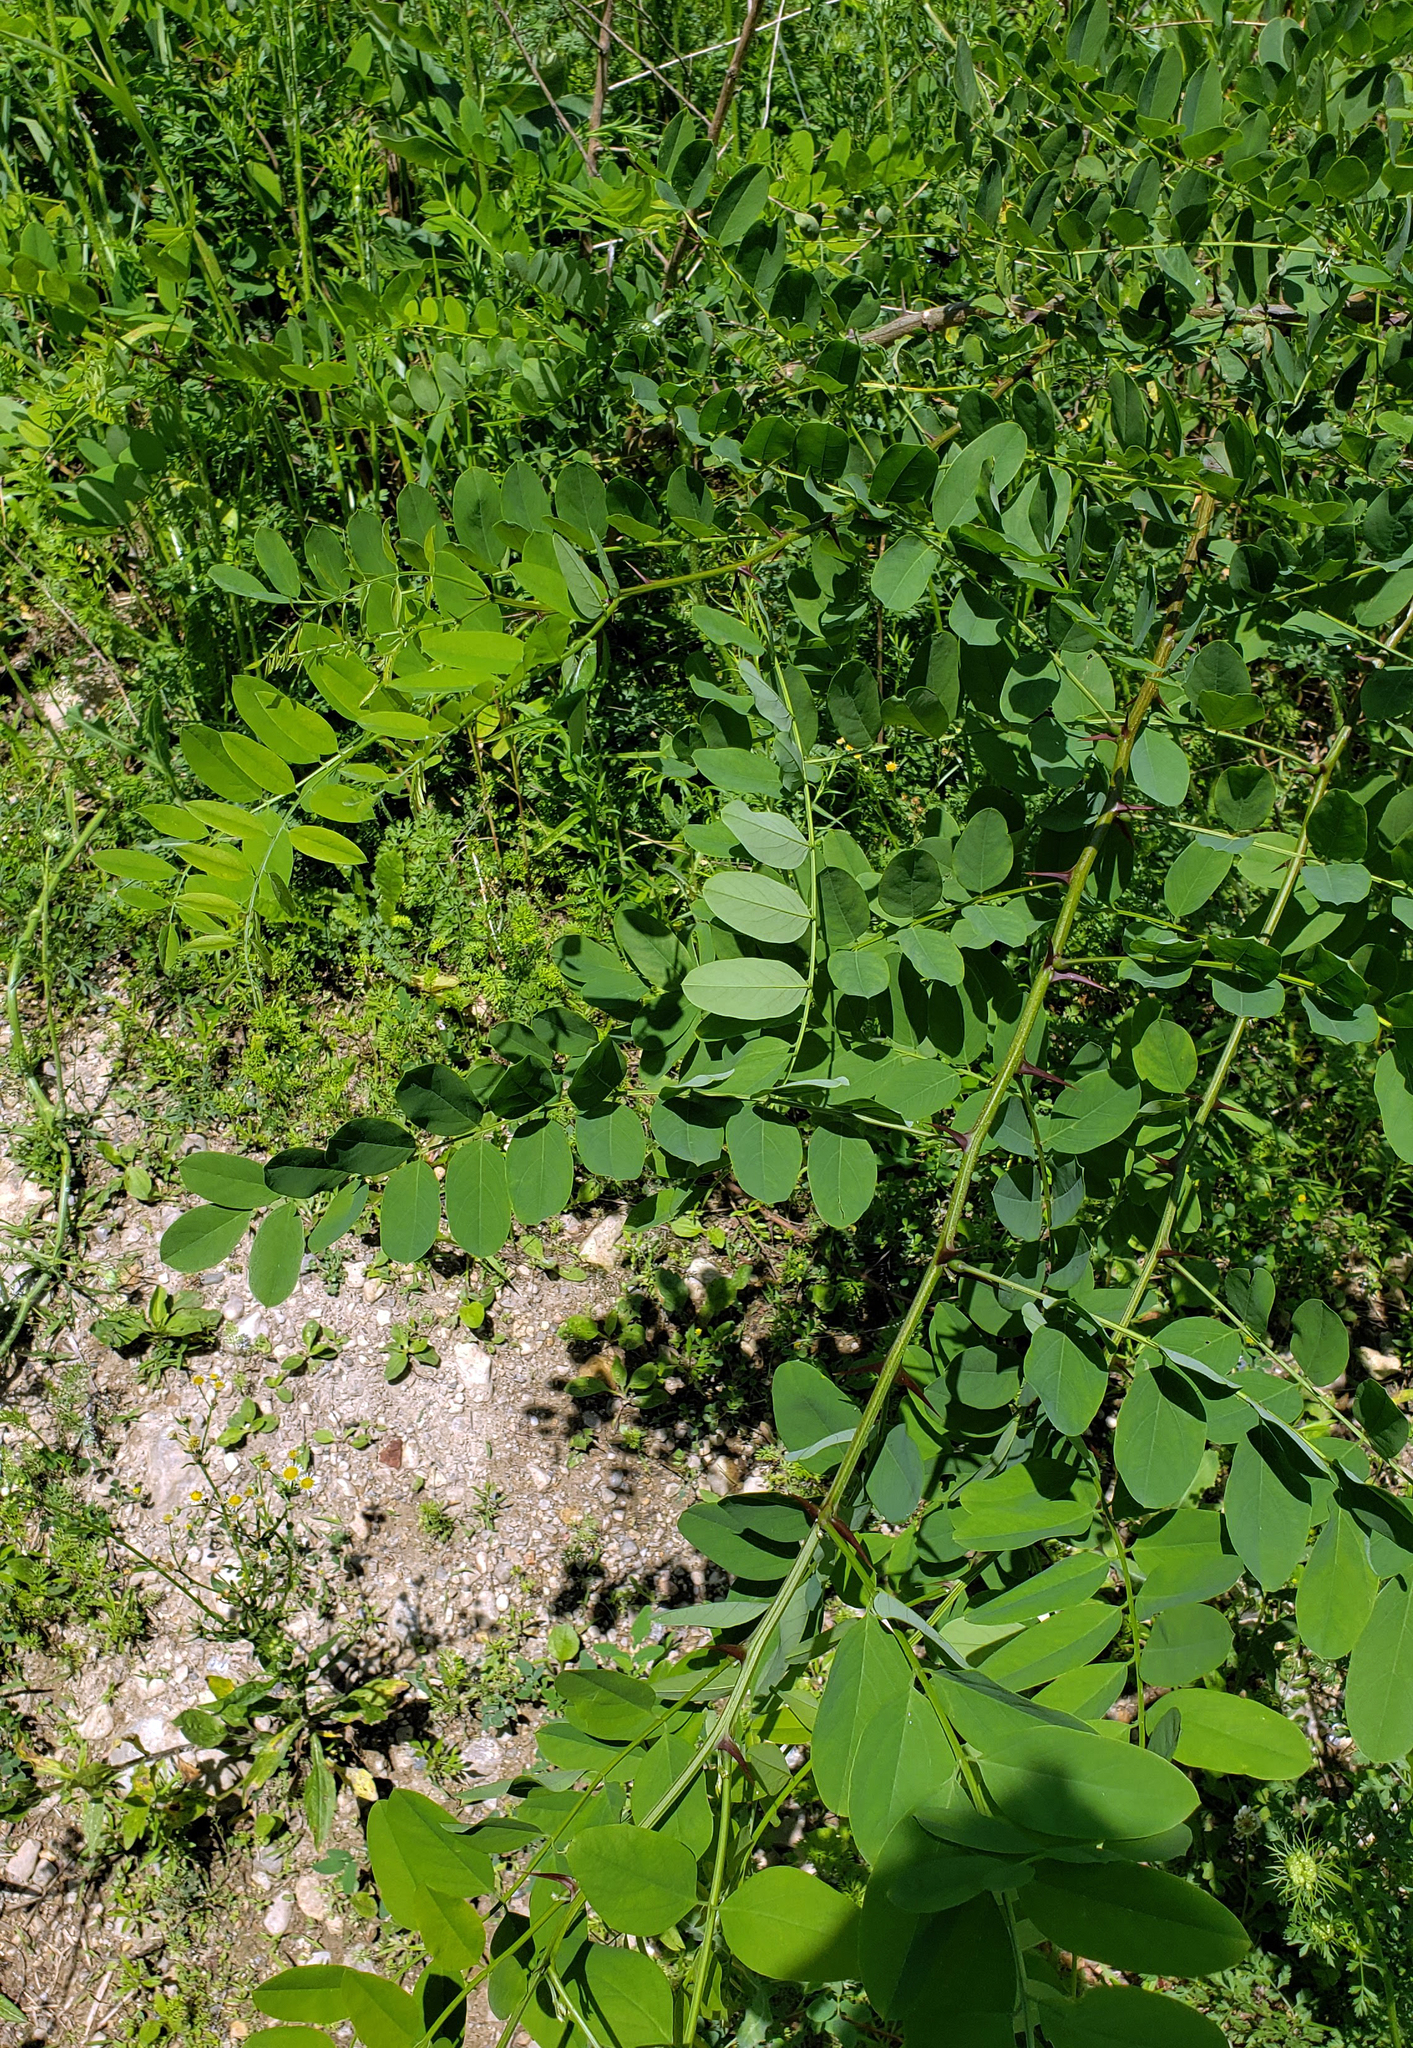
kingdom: Plantae
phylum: Tracheophyta
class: Magnoliopsida
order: Fabales
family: Fabaceae
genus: Robinia
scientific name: Robinia pseudoacacia
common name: Black locust
